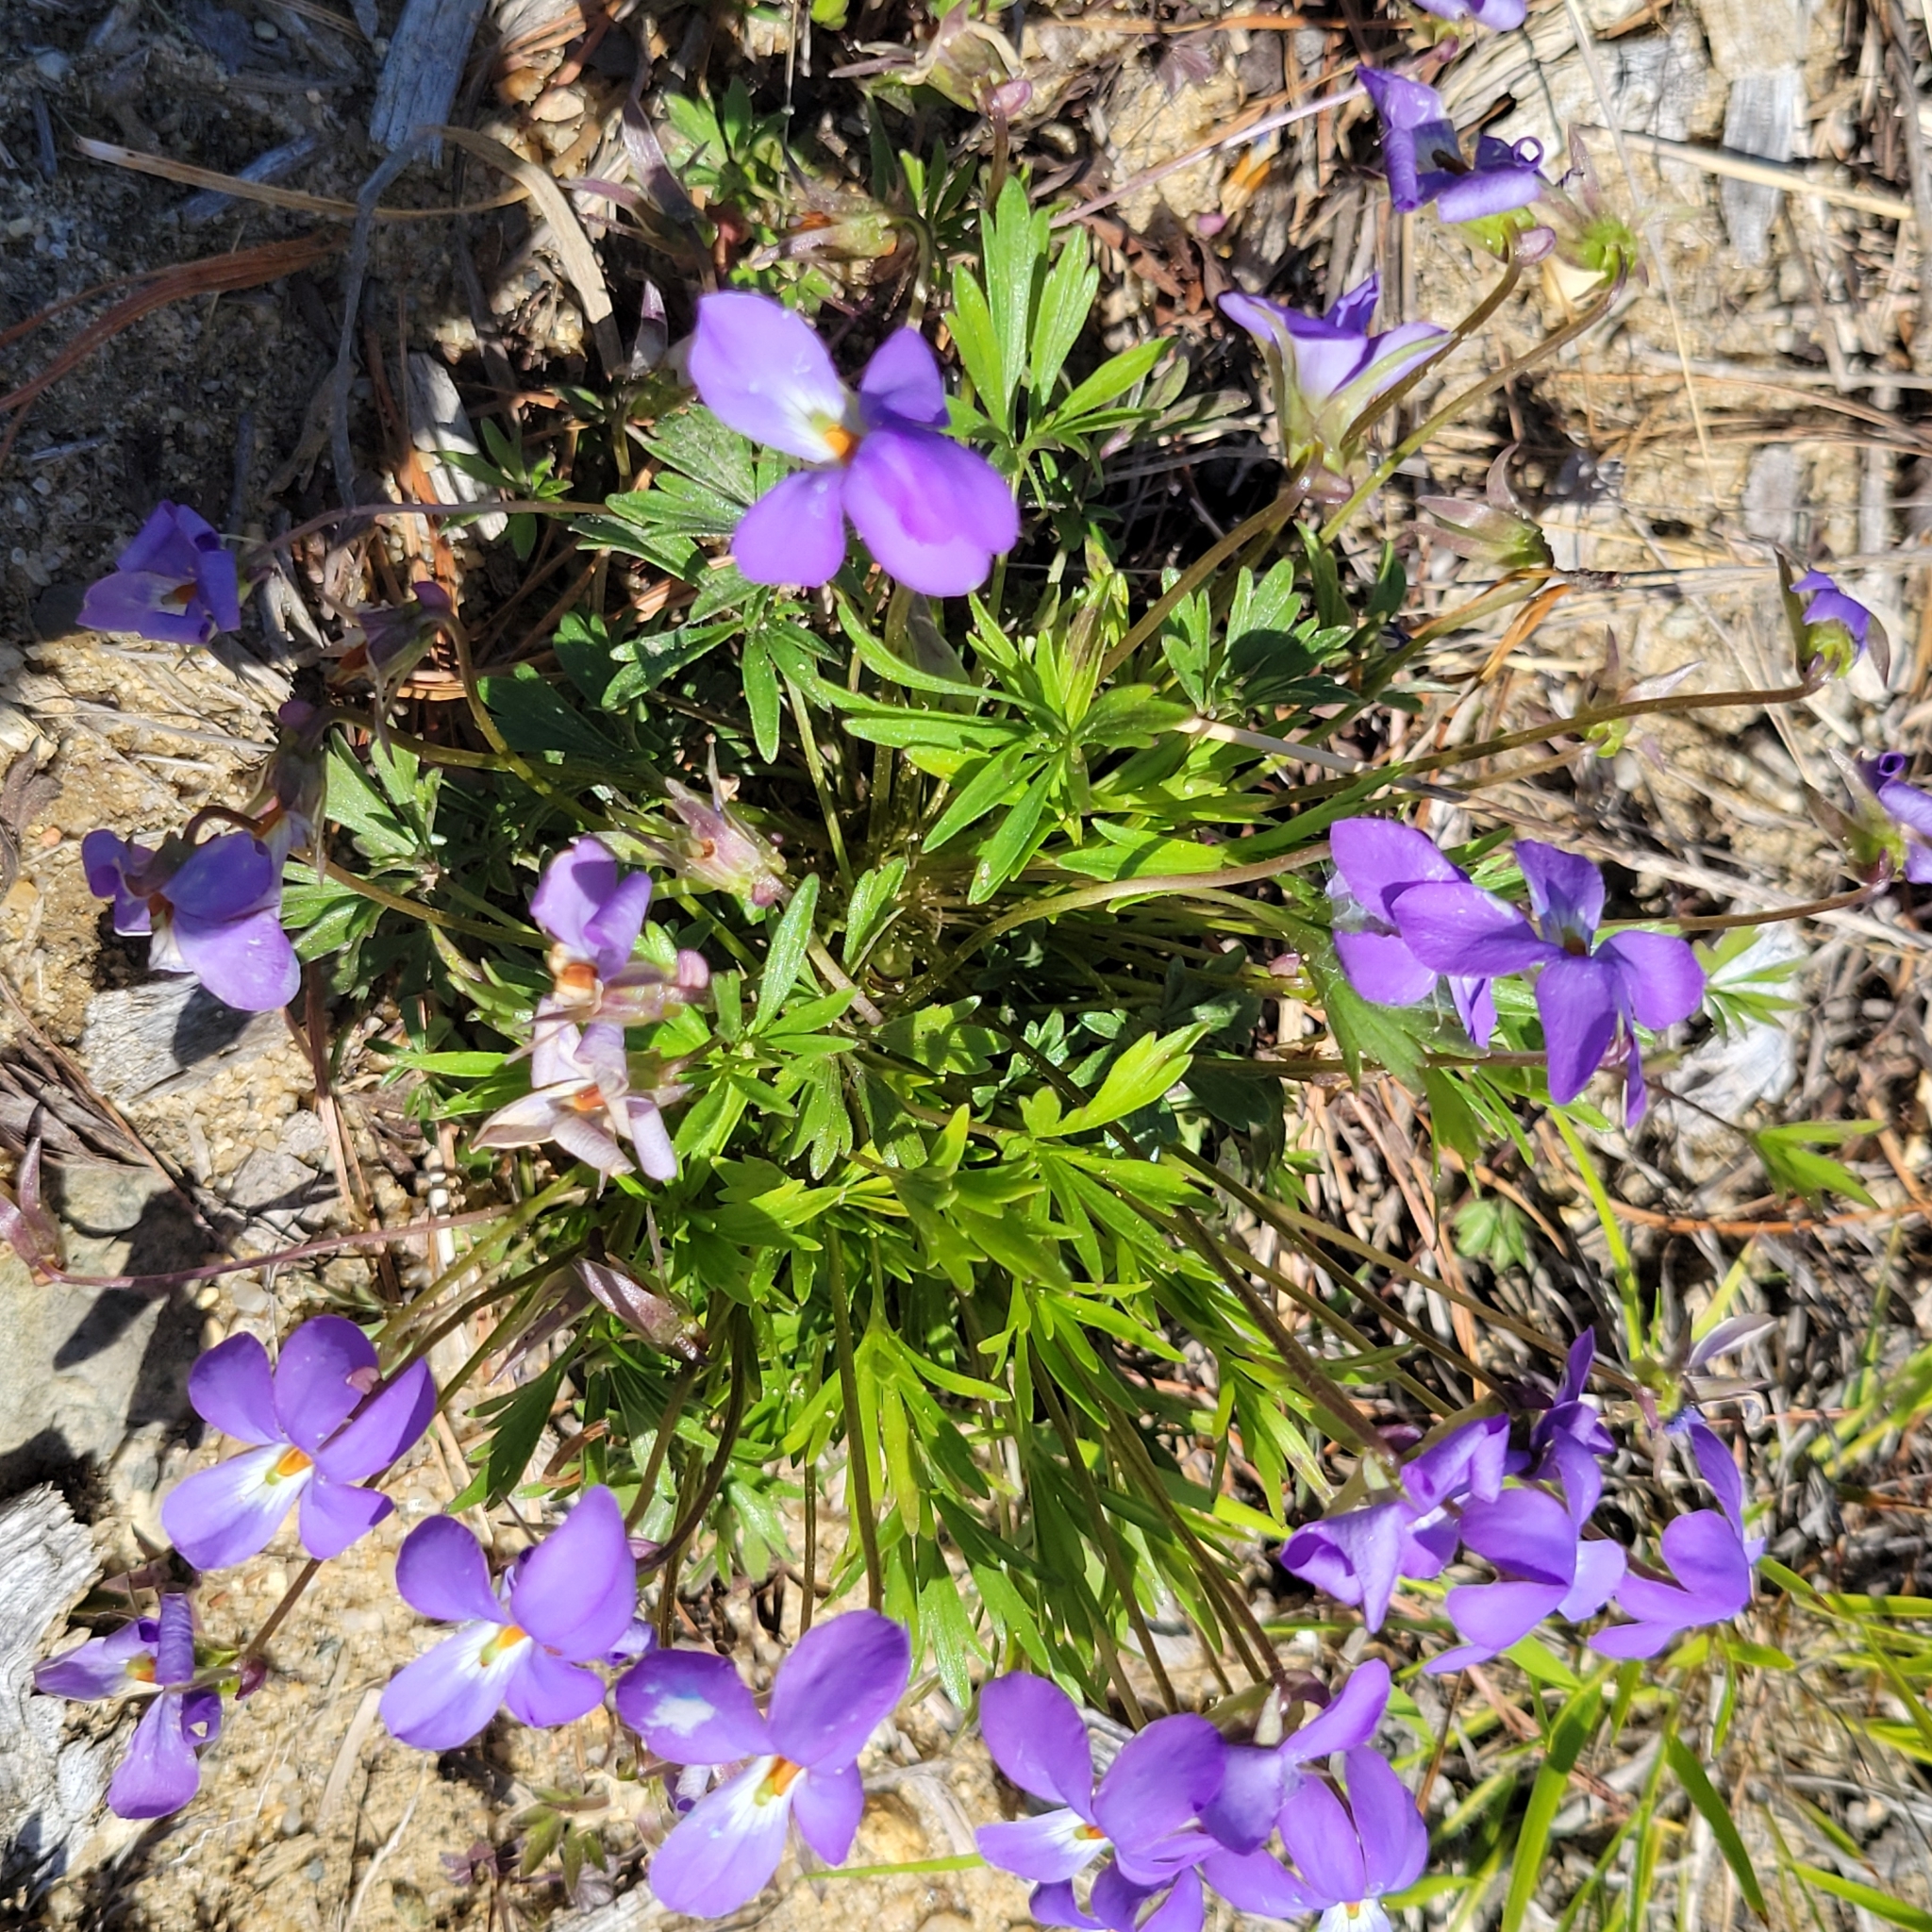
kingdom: Plantae
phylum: Tracheophyta
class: Magnoliopsida
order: Malpighiales
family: Violaceae
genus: Viola
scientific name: Viola pedata
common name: Pansy violet
